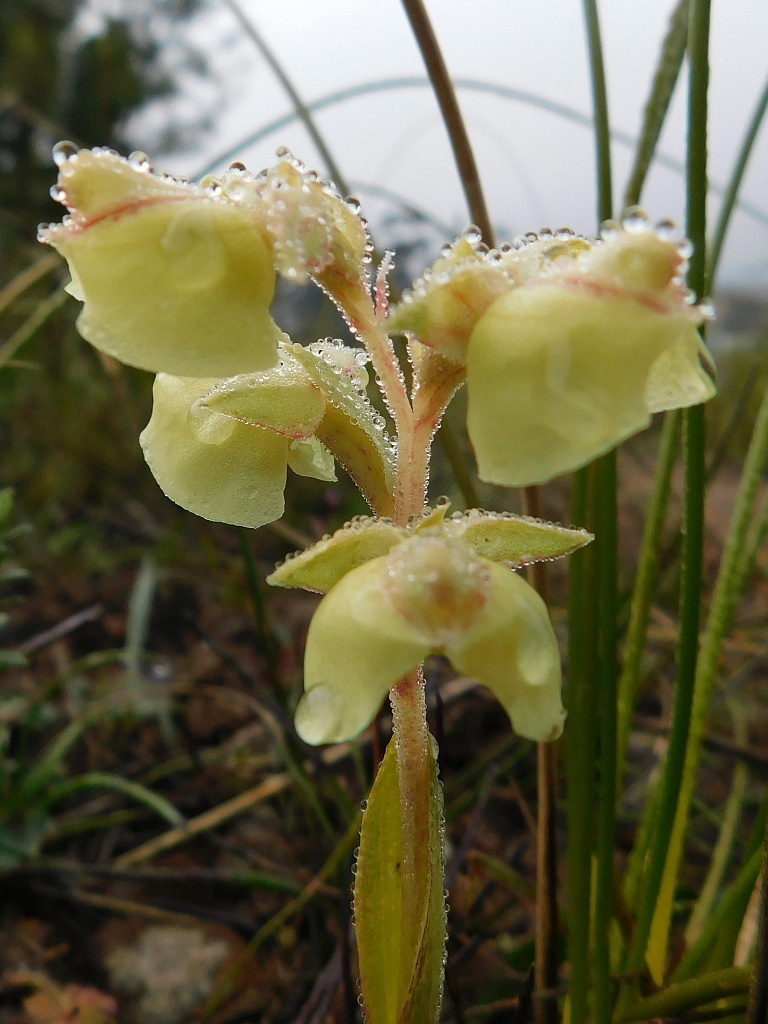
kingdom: Plantae
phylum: Tracheophyta
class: Liliopsida
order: Asparagales
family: Orchidaceae
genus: Pterygodium
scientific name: Pterygodium catholicum
